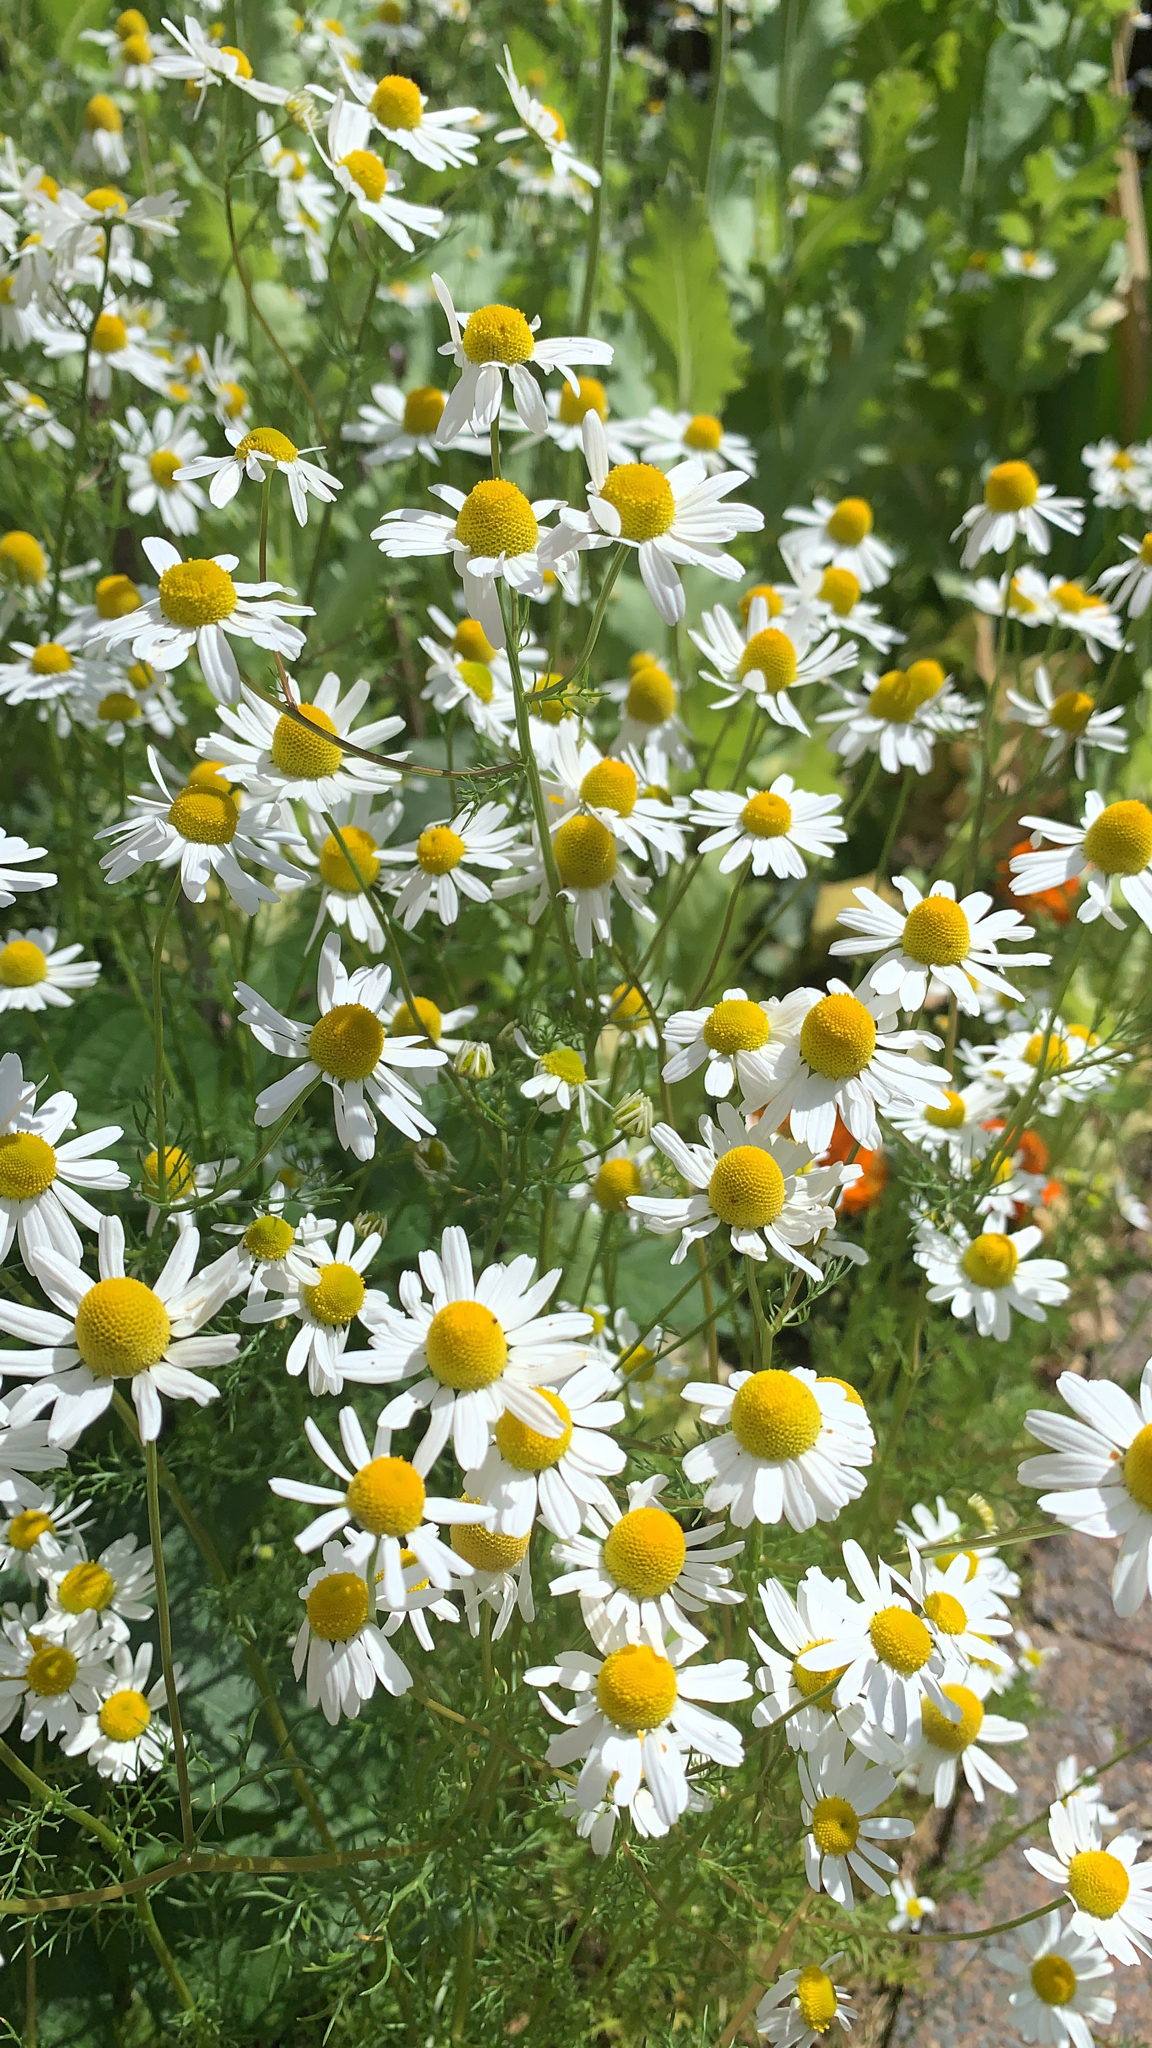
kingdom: Plantae
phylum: Tracheophyta
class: Magnoliopsida
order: Asterales
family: Asteraceae
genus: Matricaria
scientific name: Matricaria chamomilla
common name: Scented mayweed
